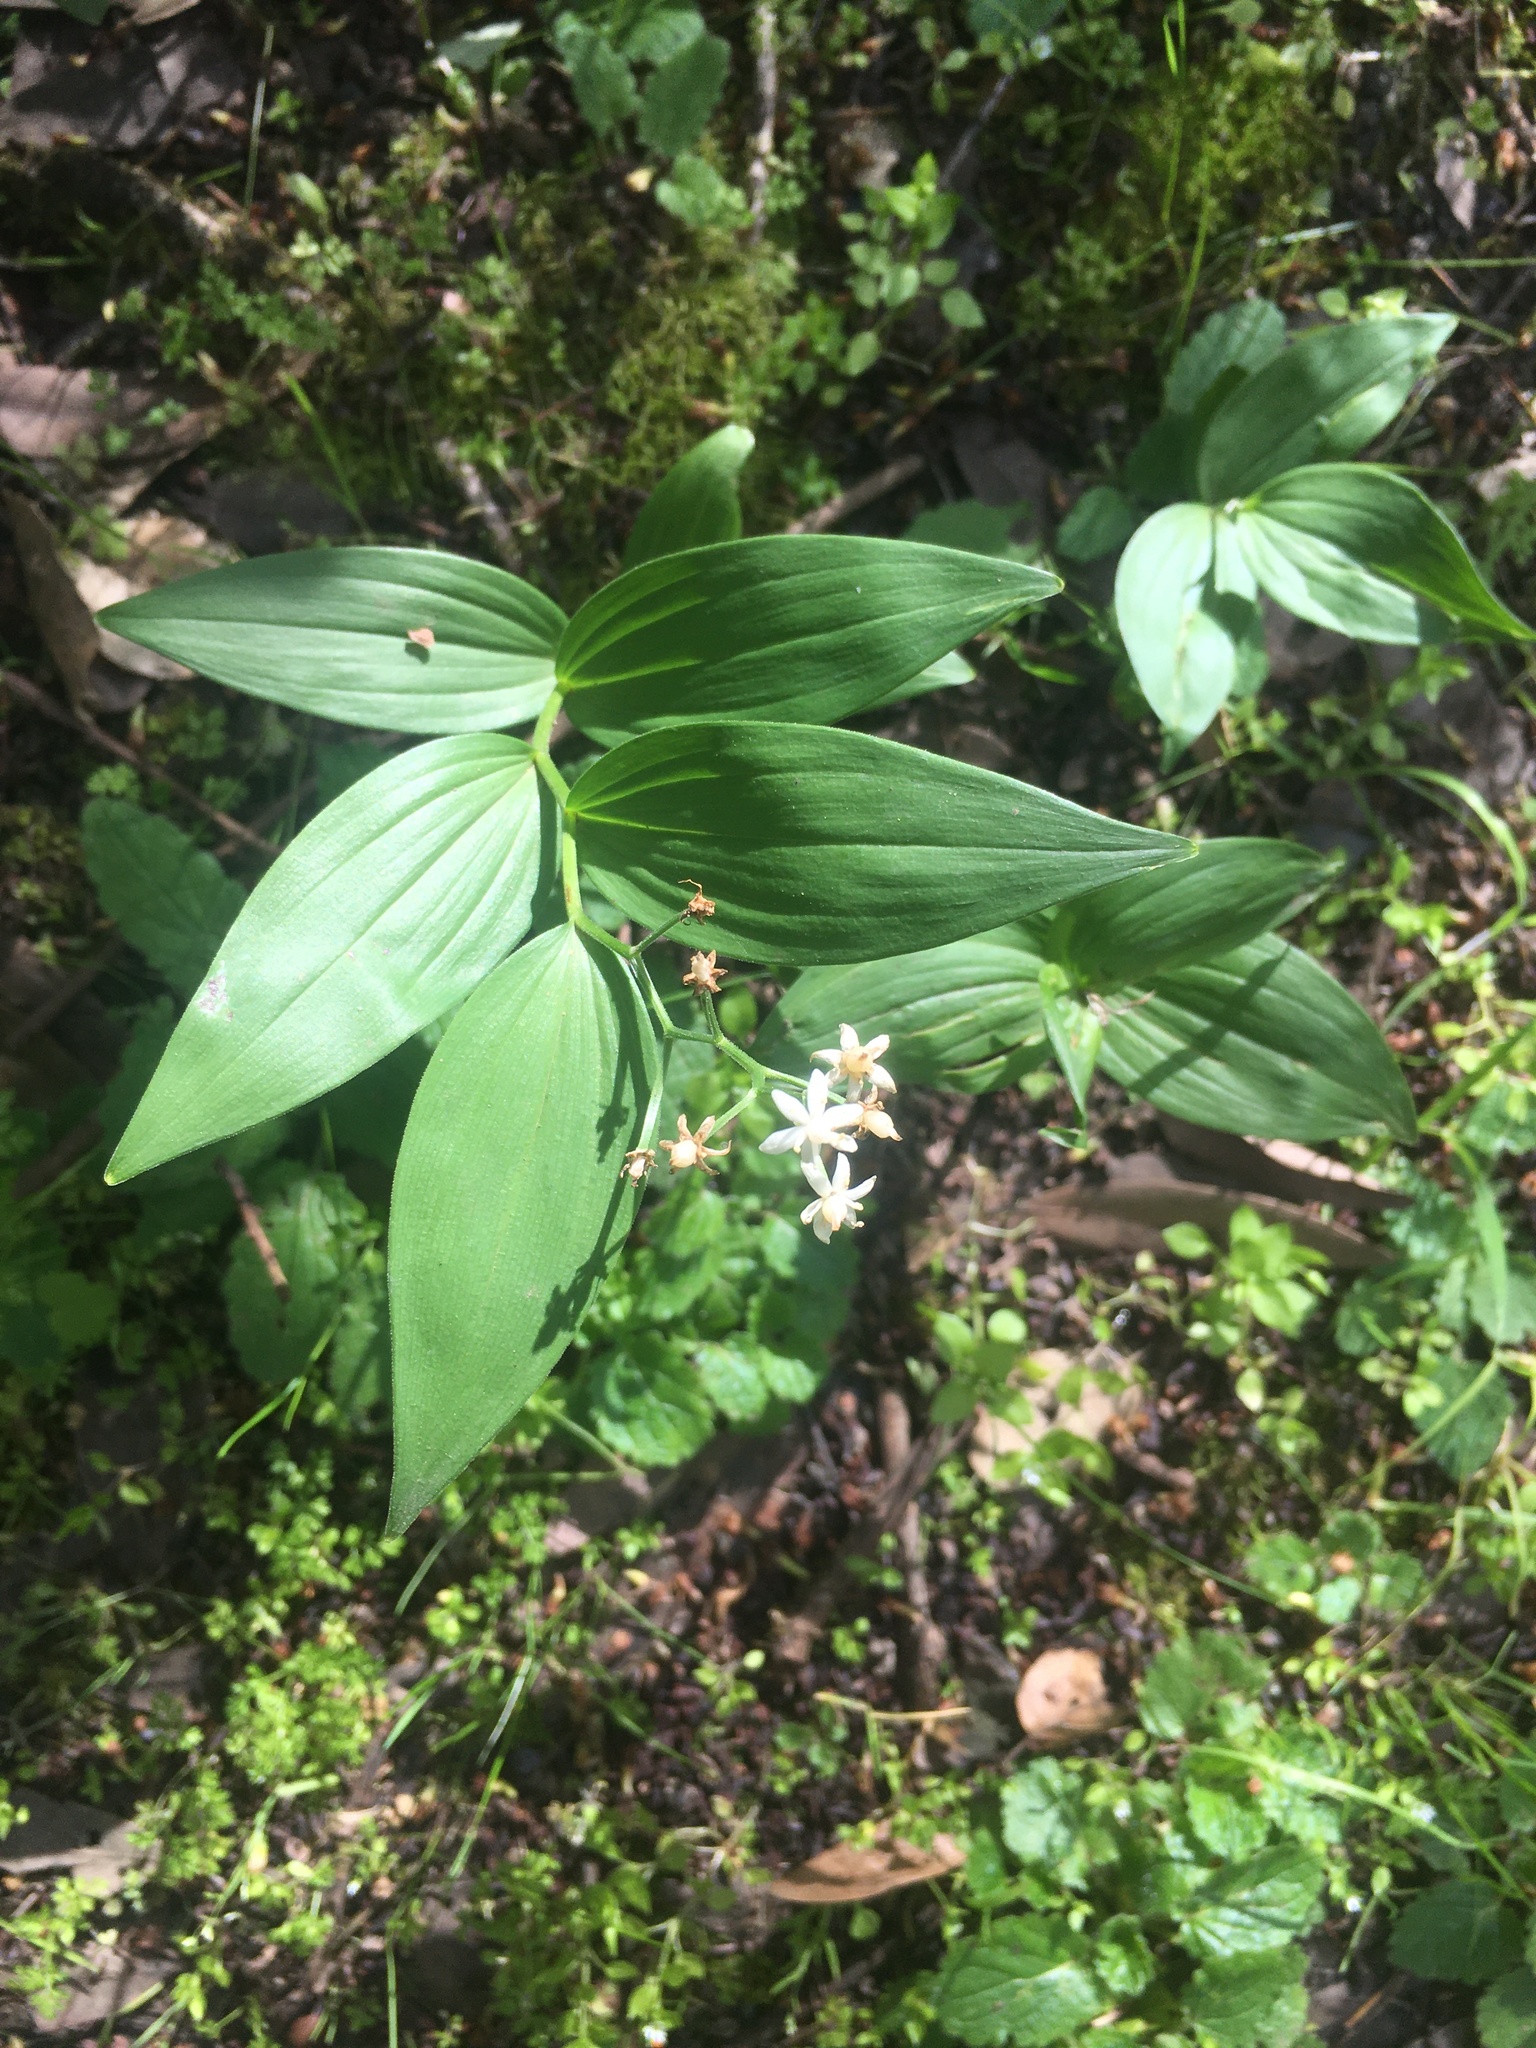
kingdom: Plantae
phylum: Tracheophyta
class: Liliopsida
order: Asparagales
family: Asparagaceae
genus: Maianthemum
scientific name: Maianthemum stellatum
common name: Little false solomon's seal
